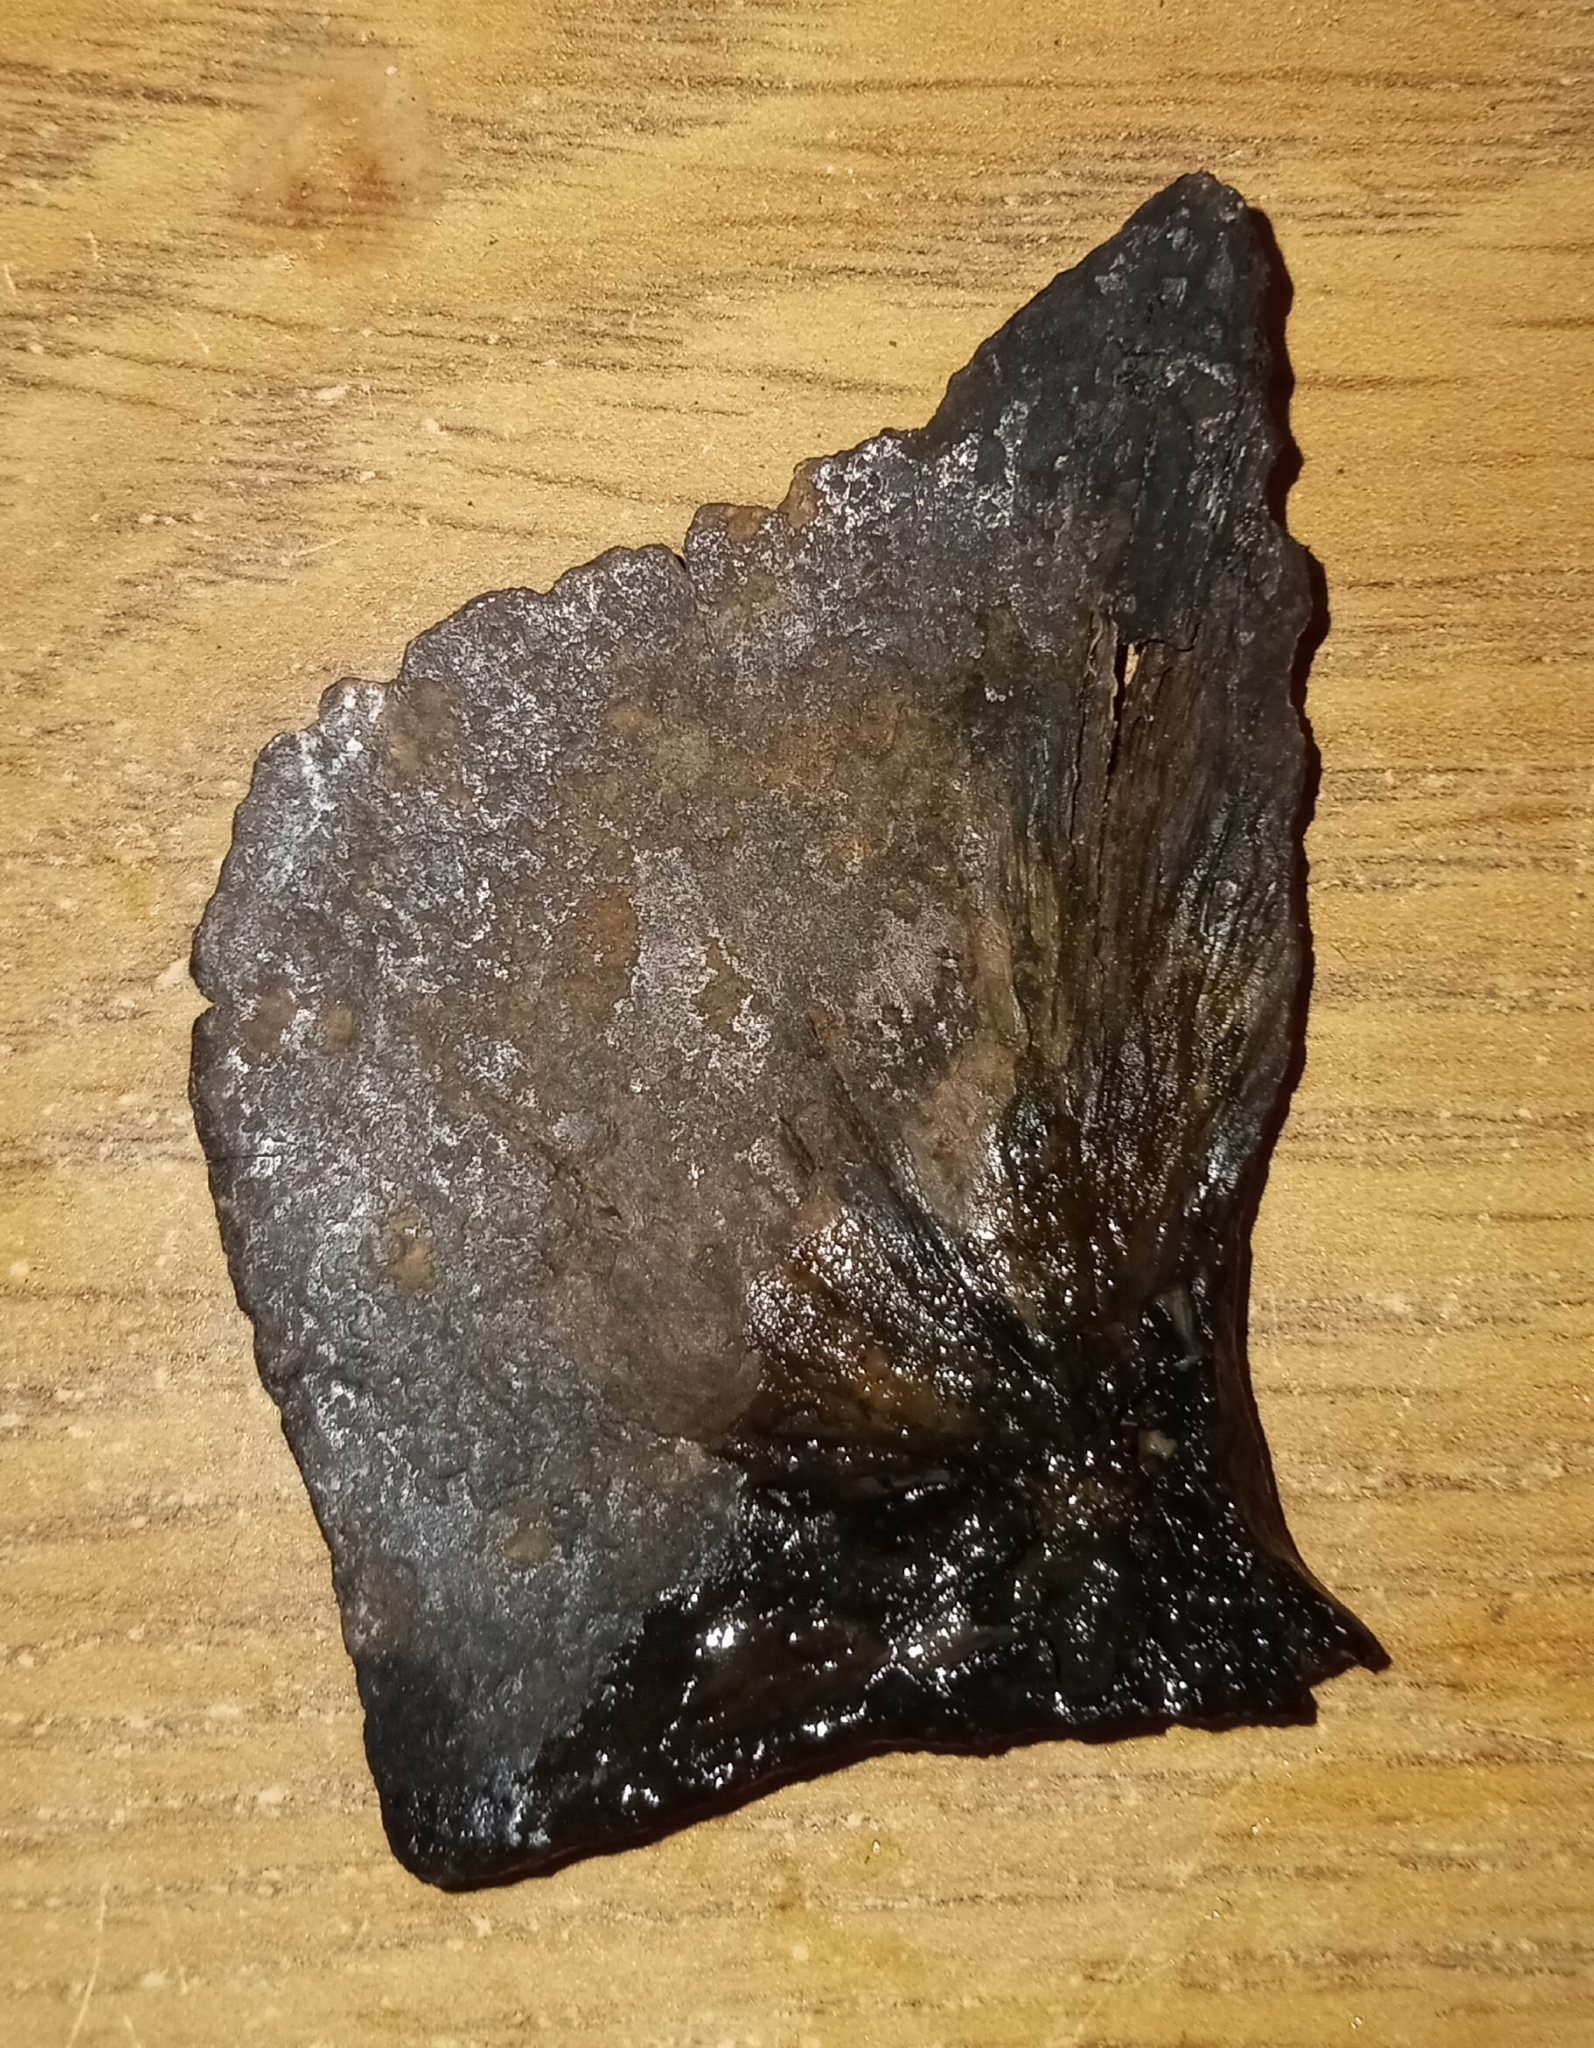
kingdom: Animalia
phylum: Chordata
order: Cypriniformes
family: Cyprinidae
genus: Cyprinus
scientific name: Cyprinus carpio
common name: Common carp
